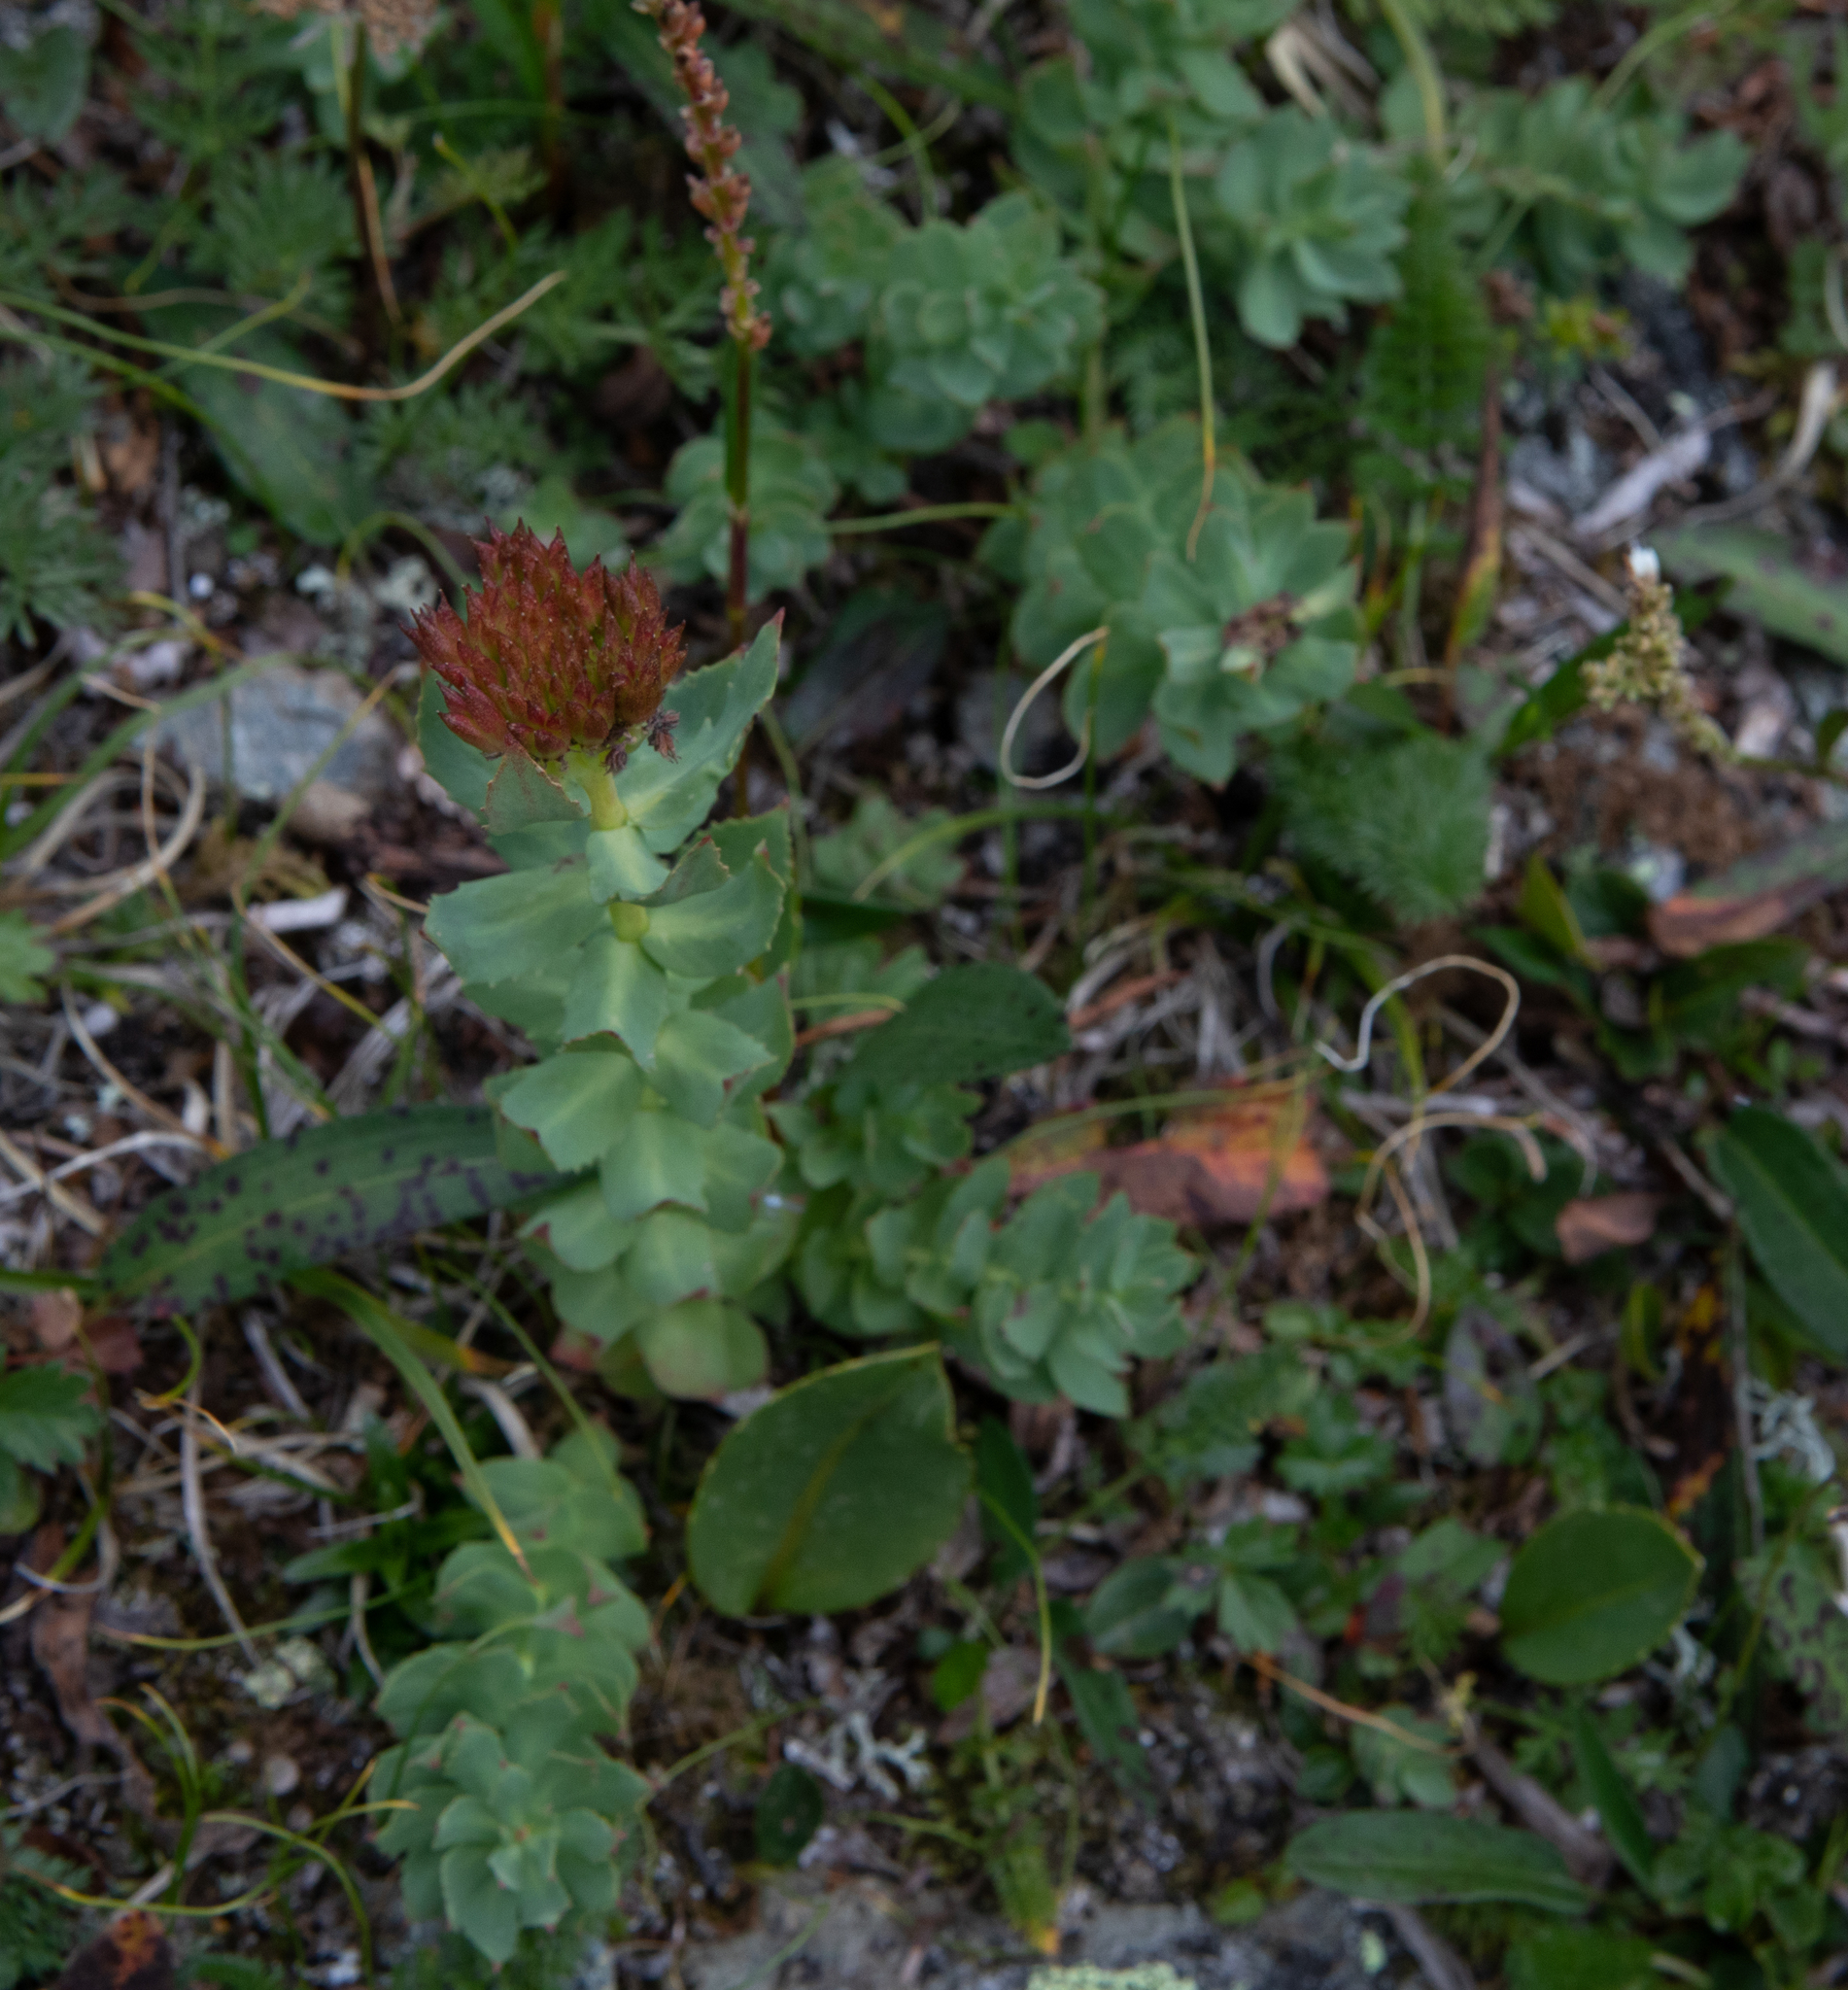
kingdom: Plantae
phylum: Tracheophyta
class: Magnoliopsida
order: Saxifragales
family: Crassulaceae
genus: Rhodiola
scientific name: Rhodiola rosea
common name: Roseroot
